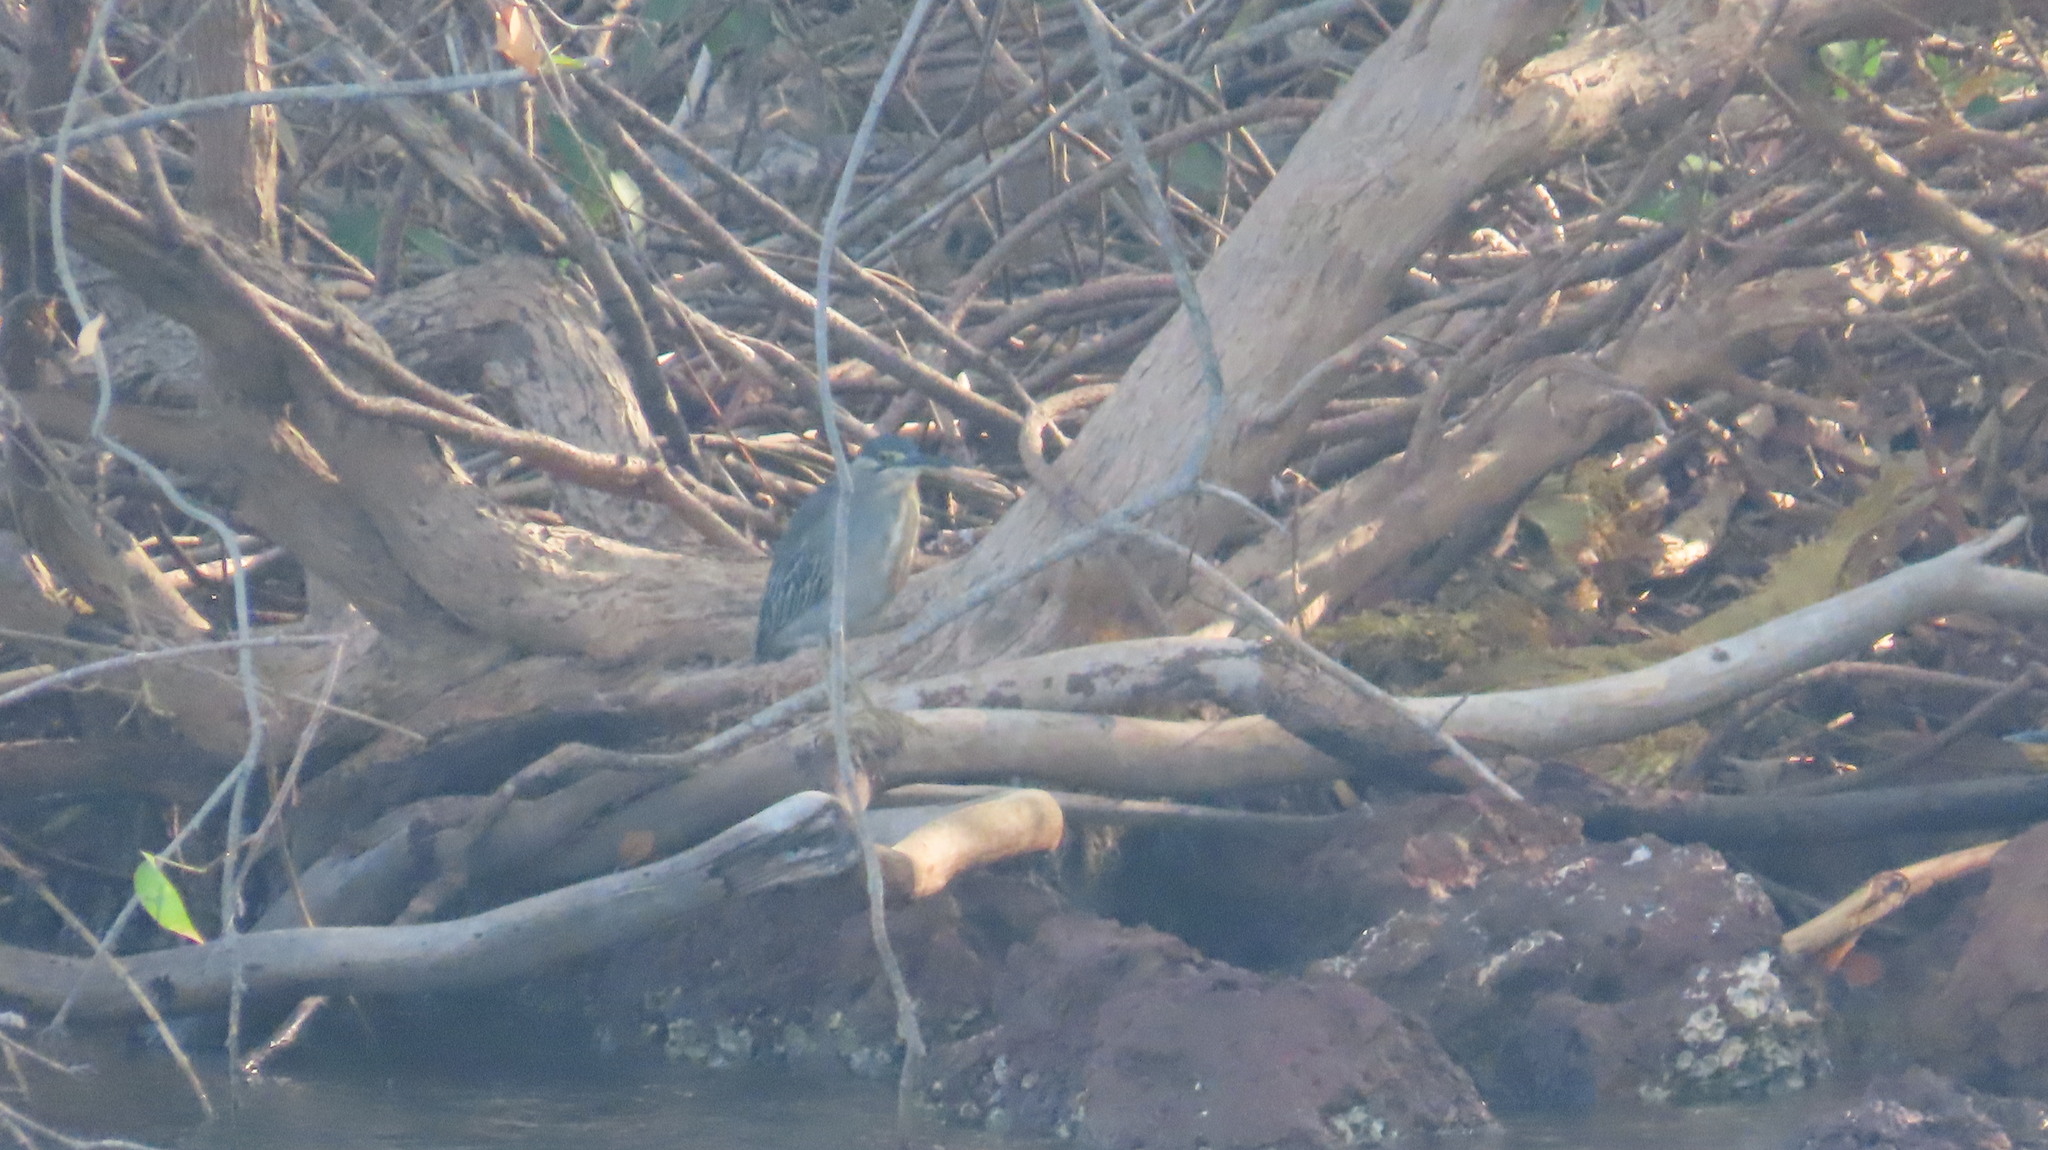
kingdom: Animalia
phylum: Chordata
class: Aves
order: Pelecaniformes
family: Ardeidae
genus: Butorides
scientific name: Butorides striata
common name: Striated heron
